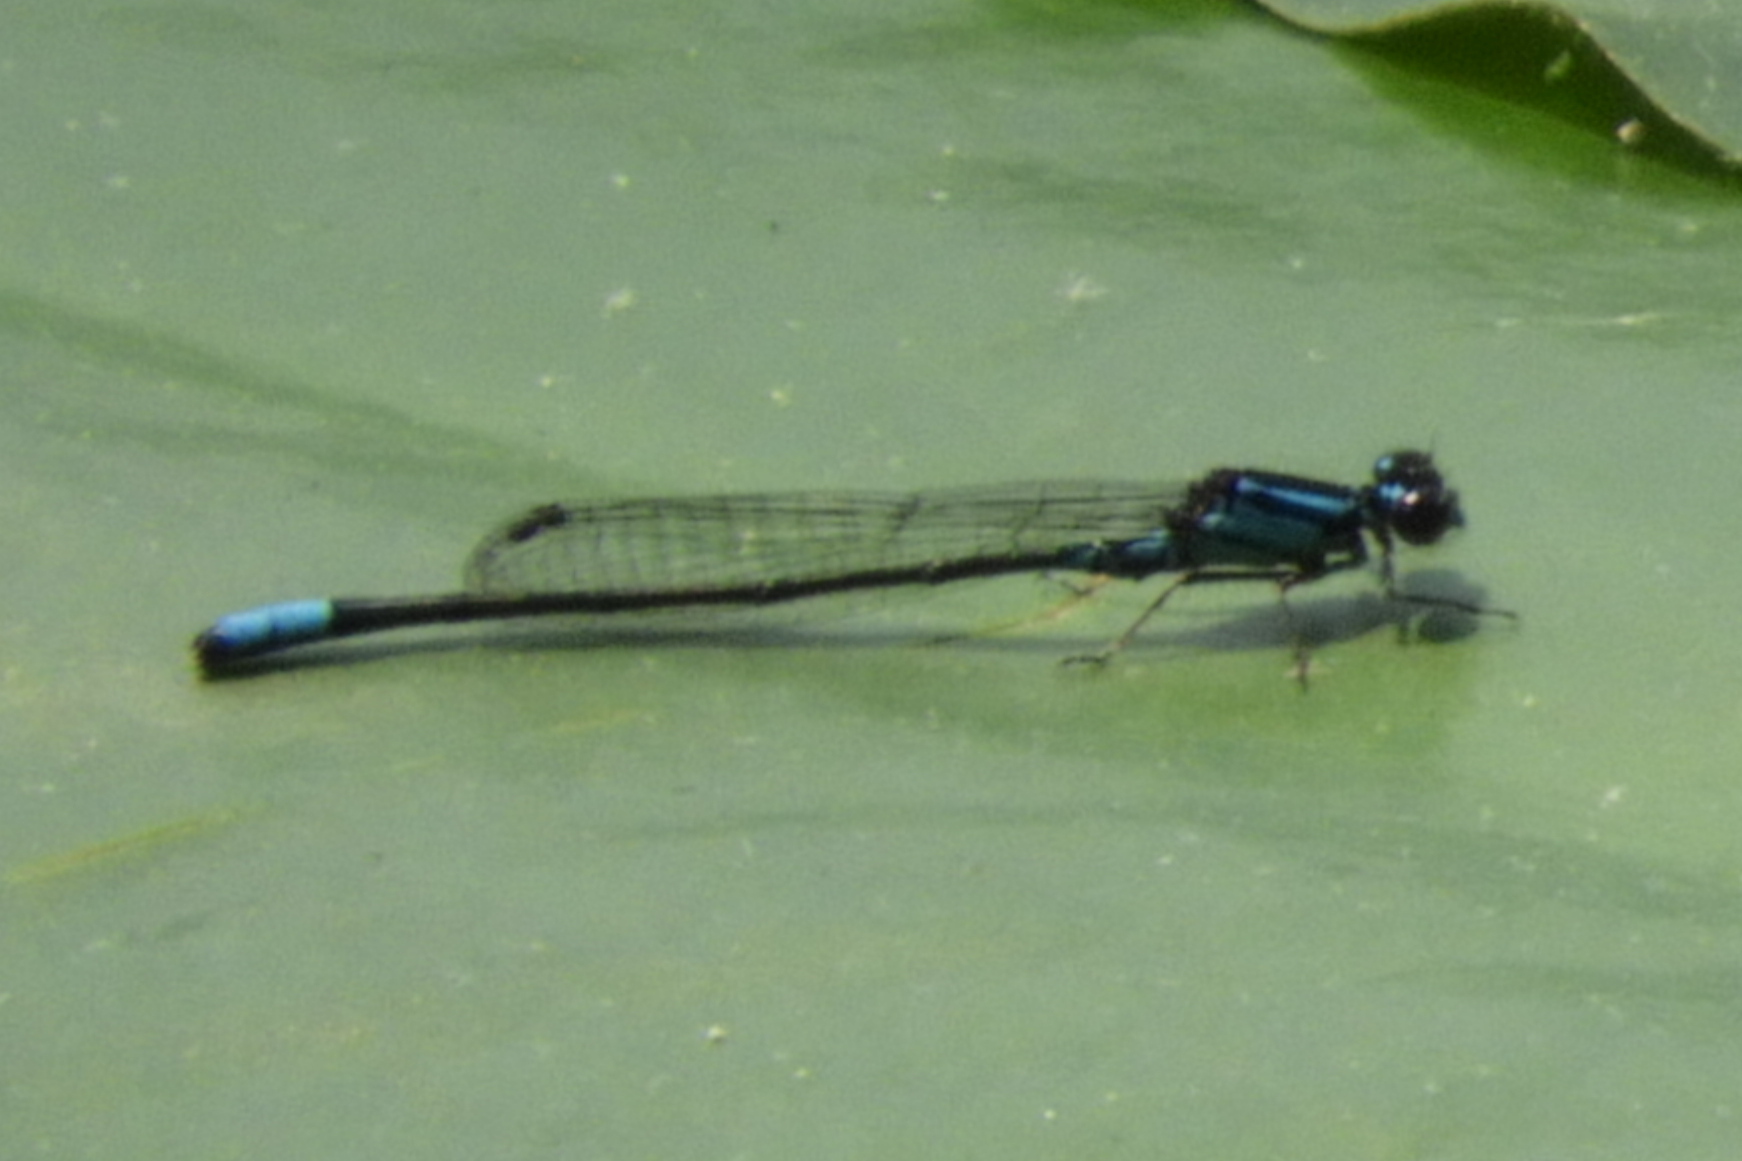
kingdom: Animalia
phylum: Arthropoda
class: Insecta
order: Odonata
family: Coenagrionidae
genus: Enallagma
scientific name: Enallagma geminatum
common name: Skimming bluet
